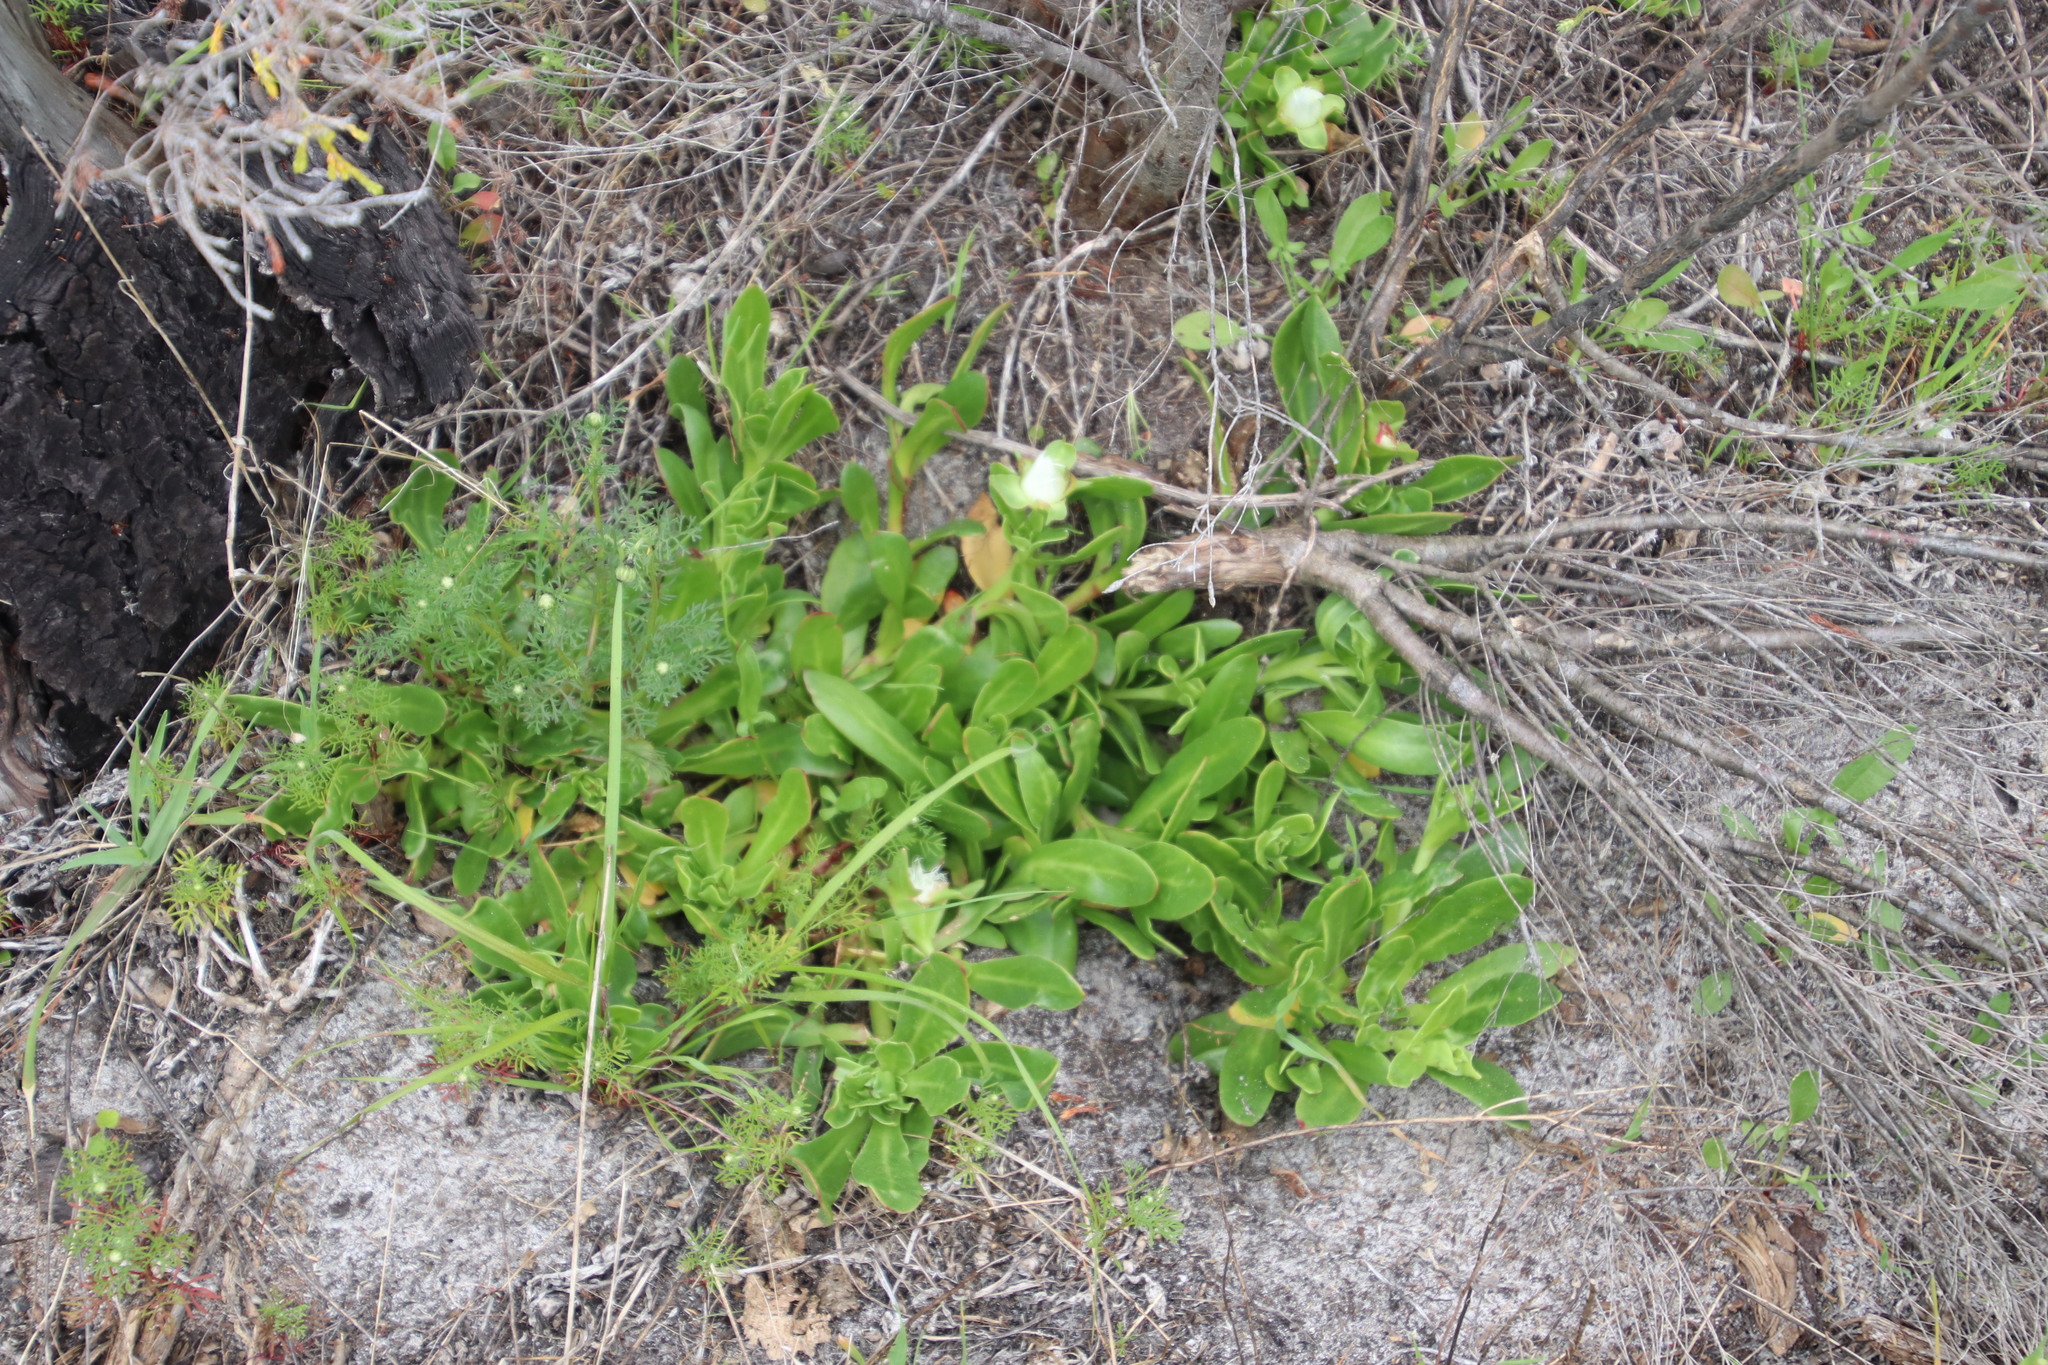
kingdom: Plantae
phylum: Tracheophyta
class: Magnoliopsida
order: Caryophyllales
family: Aizoaceae
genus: Skiatophytum
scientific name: Skiatophytum tripolium
